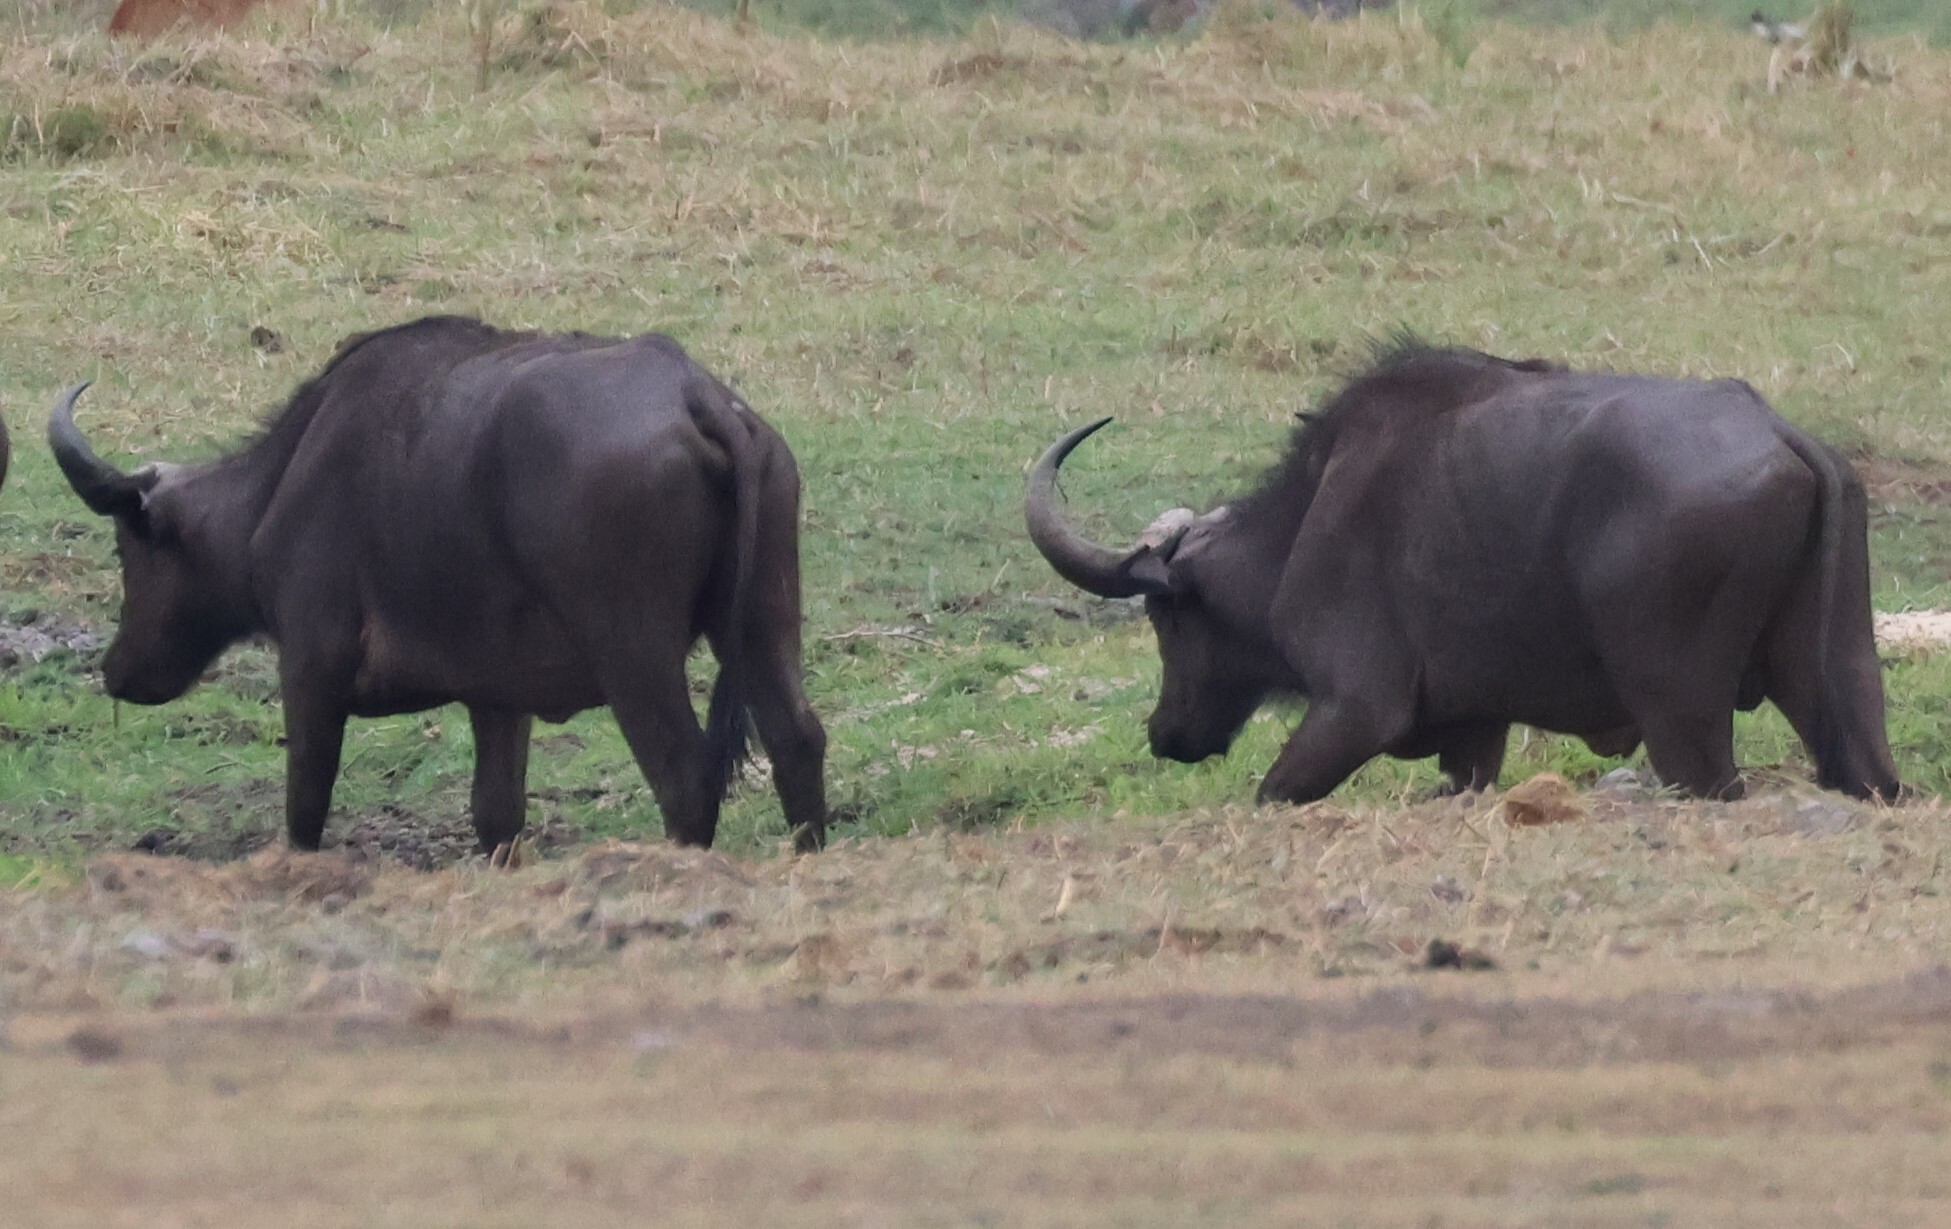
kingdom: Animalia
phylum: Chordata
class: Mammalia
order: Artiodactyla
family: Bovidae
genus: Syncerus
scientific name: Syncerus caffer
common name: African buffalo
